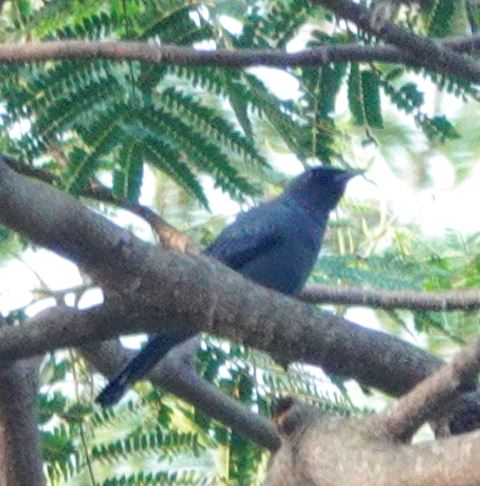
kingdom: Animalia
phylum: Chordata
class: Aves
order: Passeriformes
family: Campephagidae
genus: Edolisoma
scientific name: Edolisoma tenuirostre
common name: Common cicadabird
